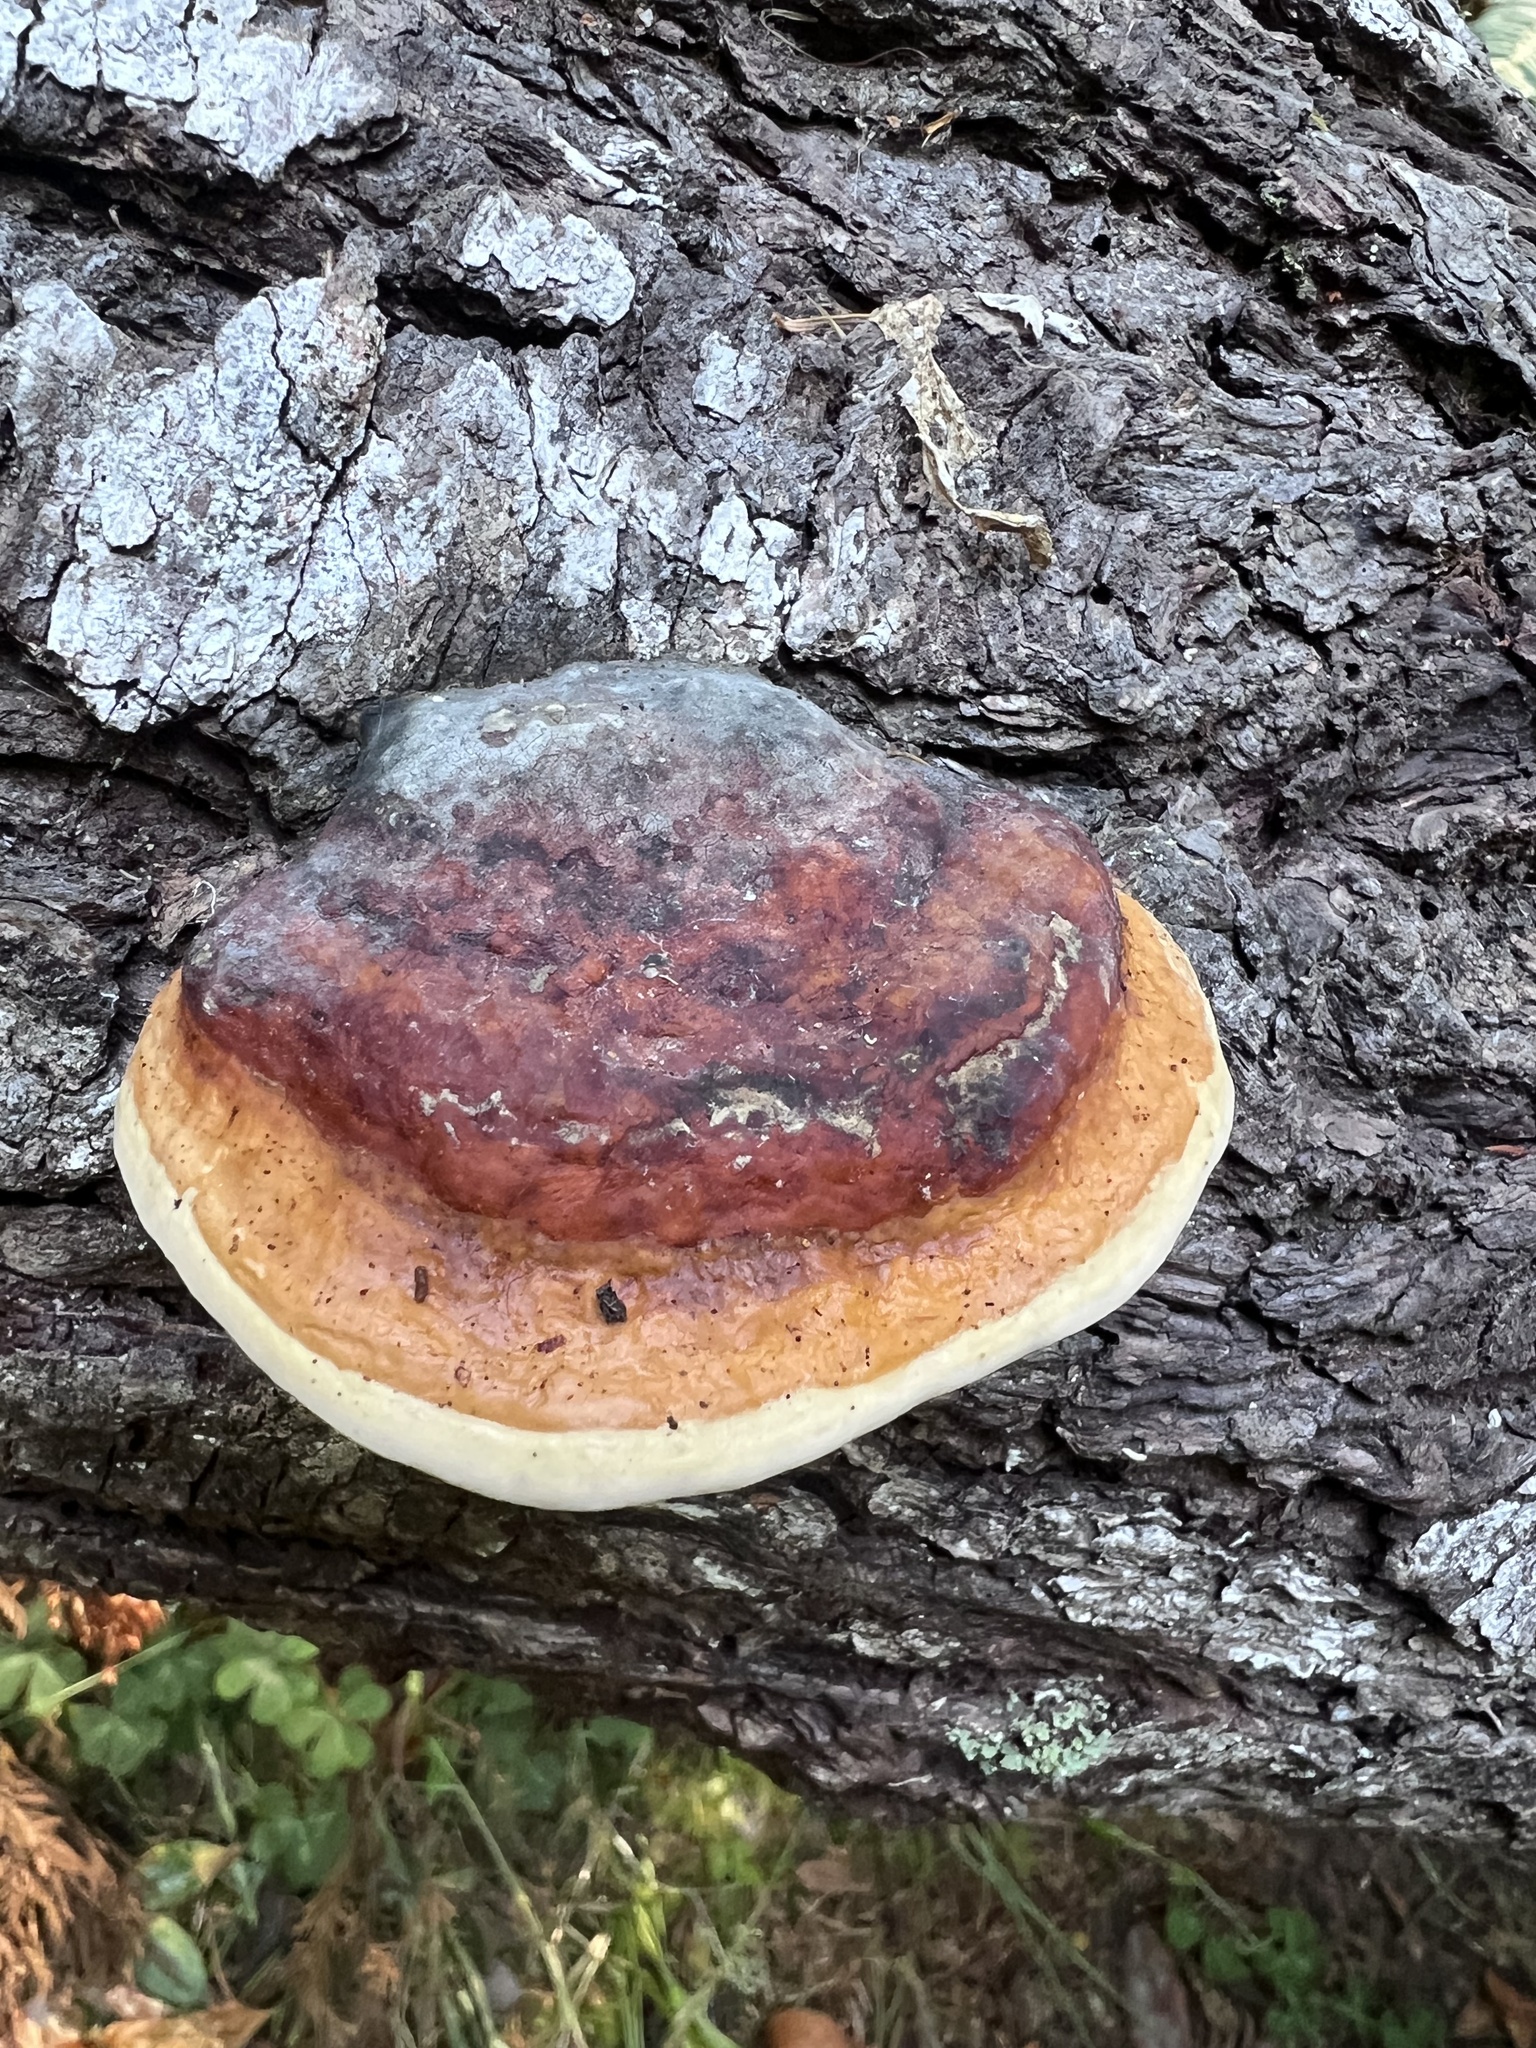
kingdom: Fungi
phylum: Basidiomycota
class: Agaricomycetes
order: Polyporales
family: Fomitopsidaceae
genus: Fomitopsis
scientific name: Fomitopsis mounceae
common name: Northern red belt
